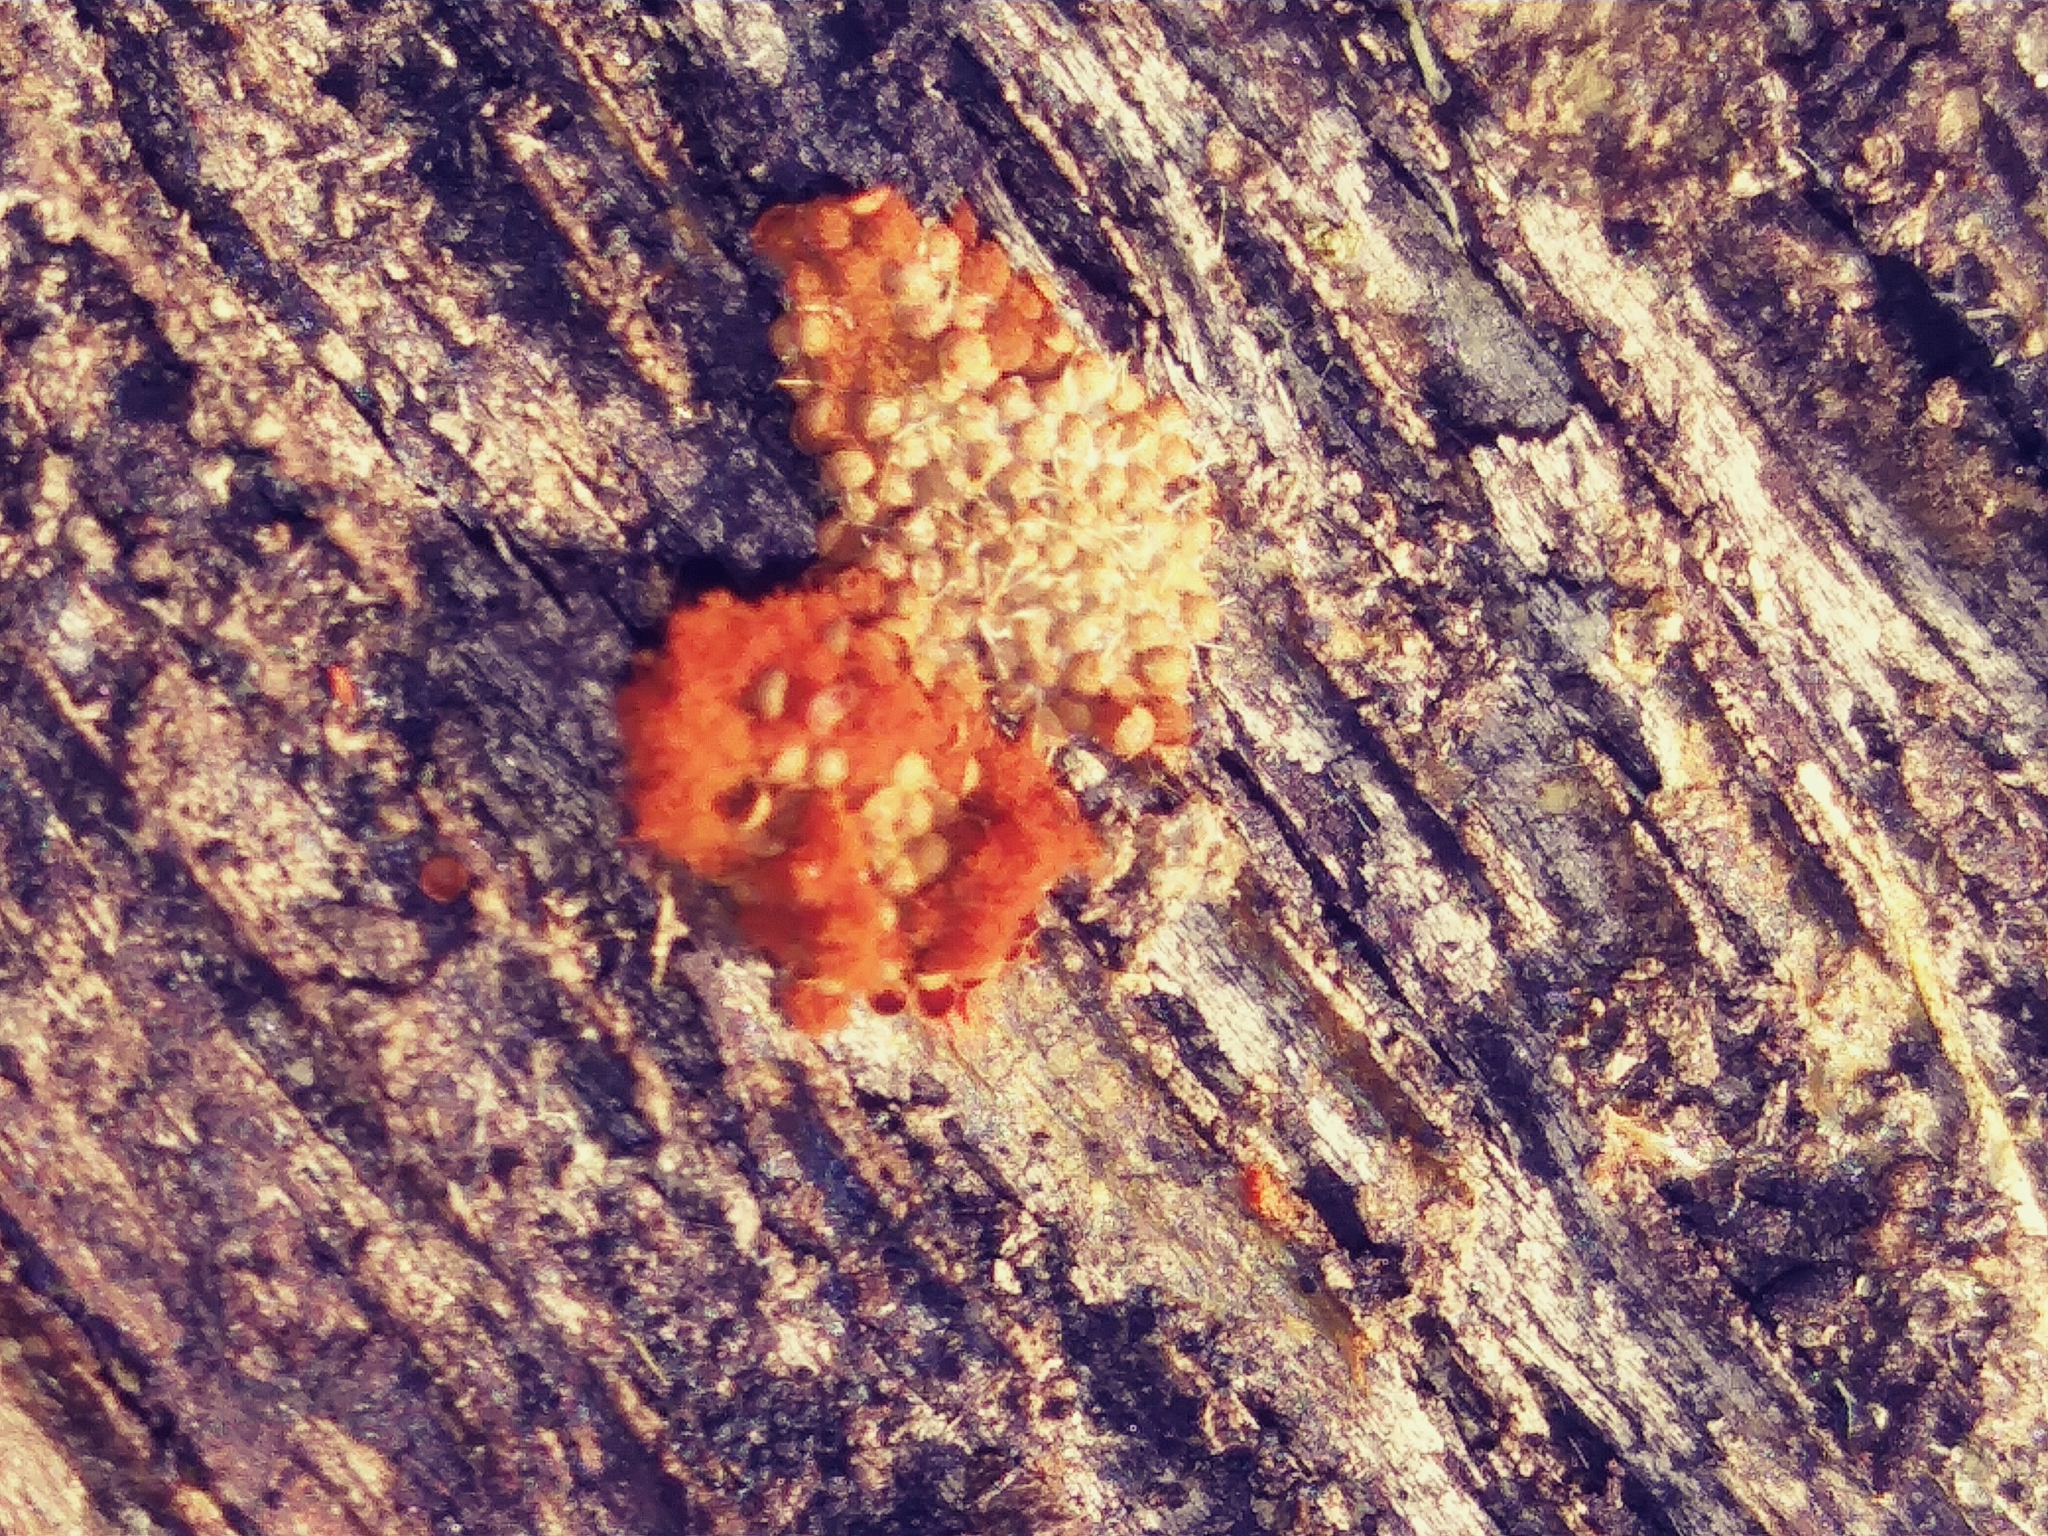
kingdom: Protozoa
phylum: Mycetozoa
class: Myxomycetes
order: Trichiales
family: Trichiaceae
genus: Metatrichia
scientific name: Metatrichia vesparia
